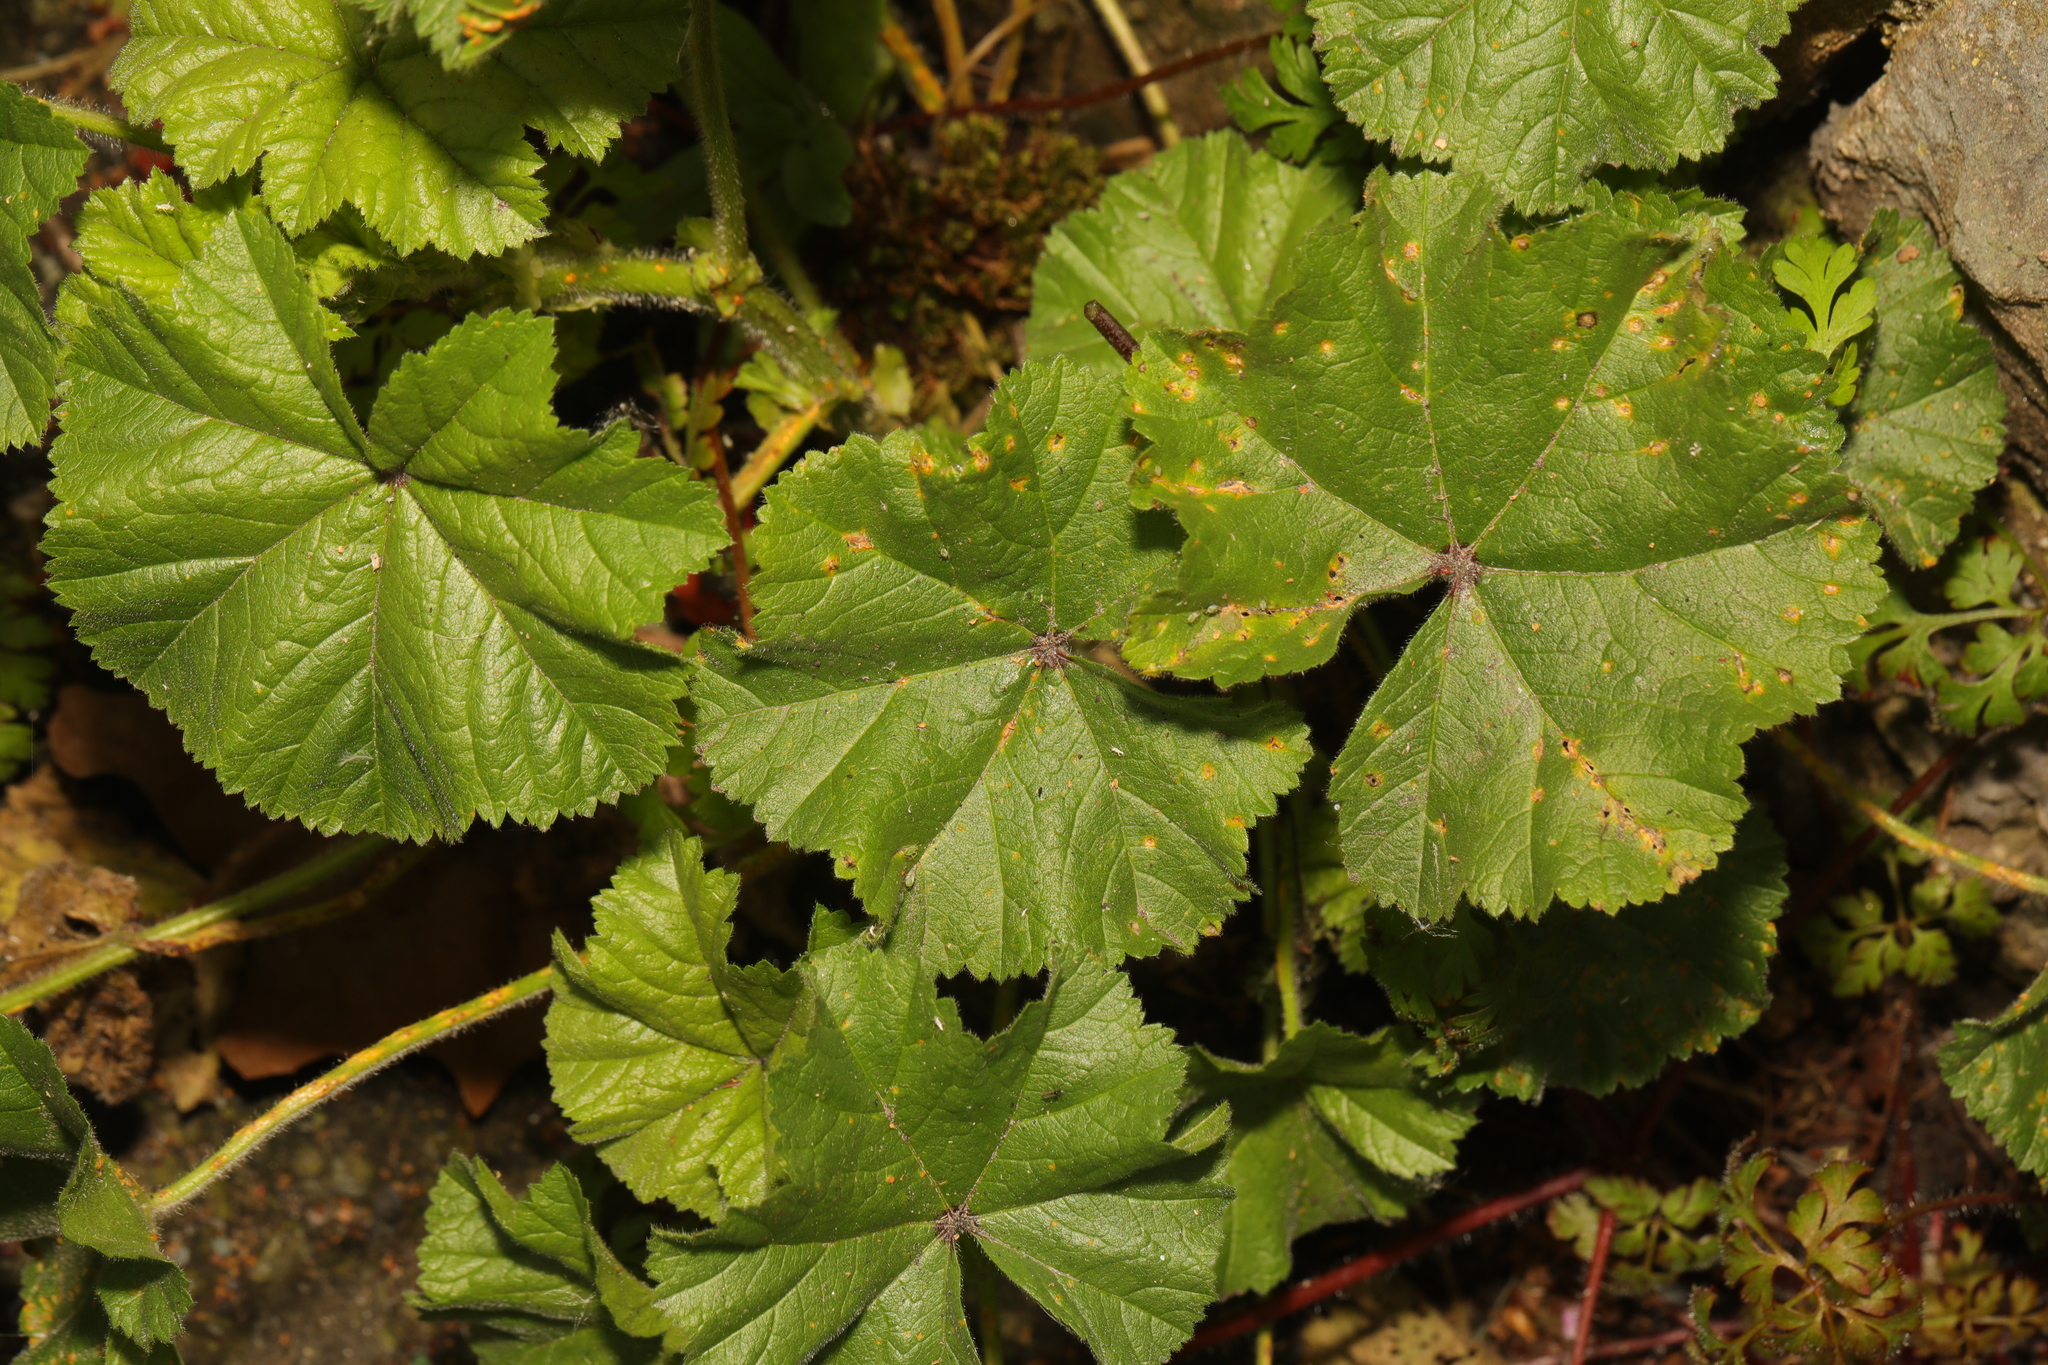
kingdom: Plantae
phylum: Tracheophyta
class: Magnoliopsida
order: Malvales
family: Malvaceae
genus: Malva
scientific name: Malva sylvestris
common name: Common mallow
